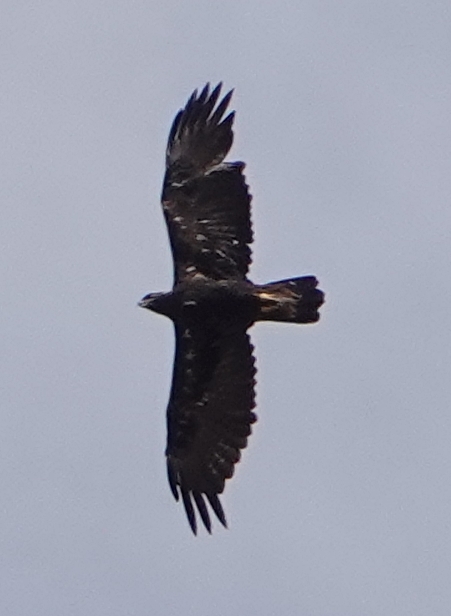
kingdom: Animalia
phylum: Chordata
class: Aves
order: Accipitriformes
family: Accipitridae
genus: Aquila
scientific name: Aquila chrysaetos
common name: Golden eagle
